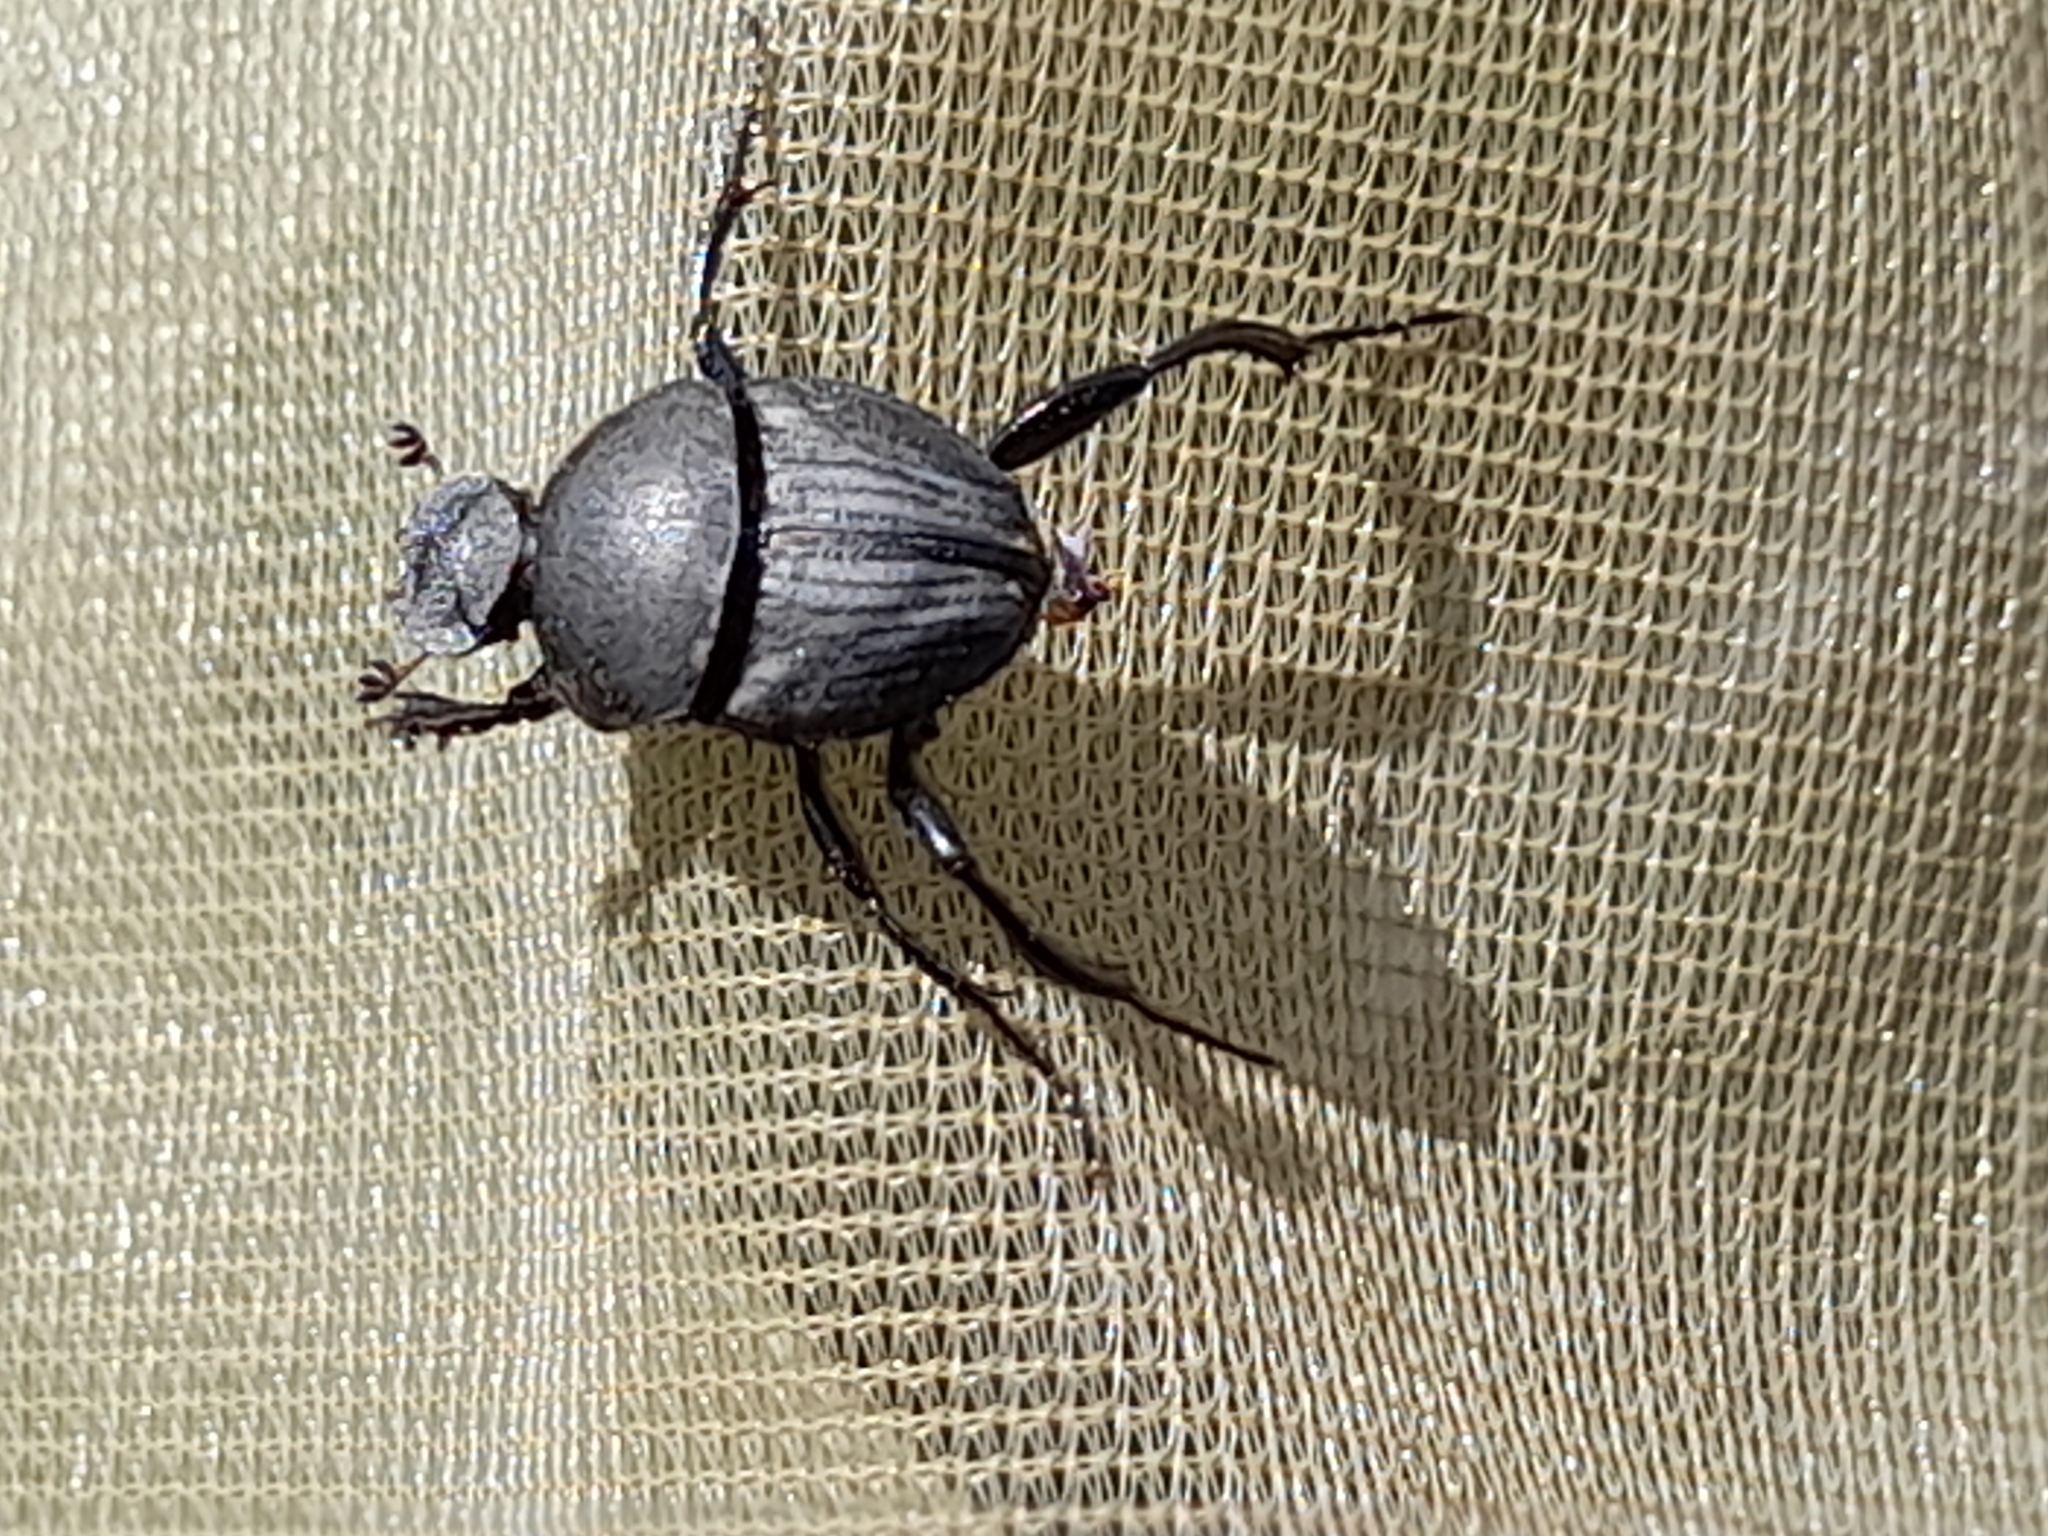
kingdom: Animalia
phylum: Arthropoda
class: Insecta
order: Coleoptera
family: Scarabaeidae
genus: Sisyphus
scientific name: Sisyphus schaefferi
